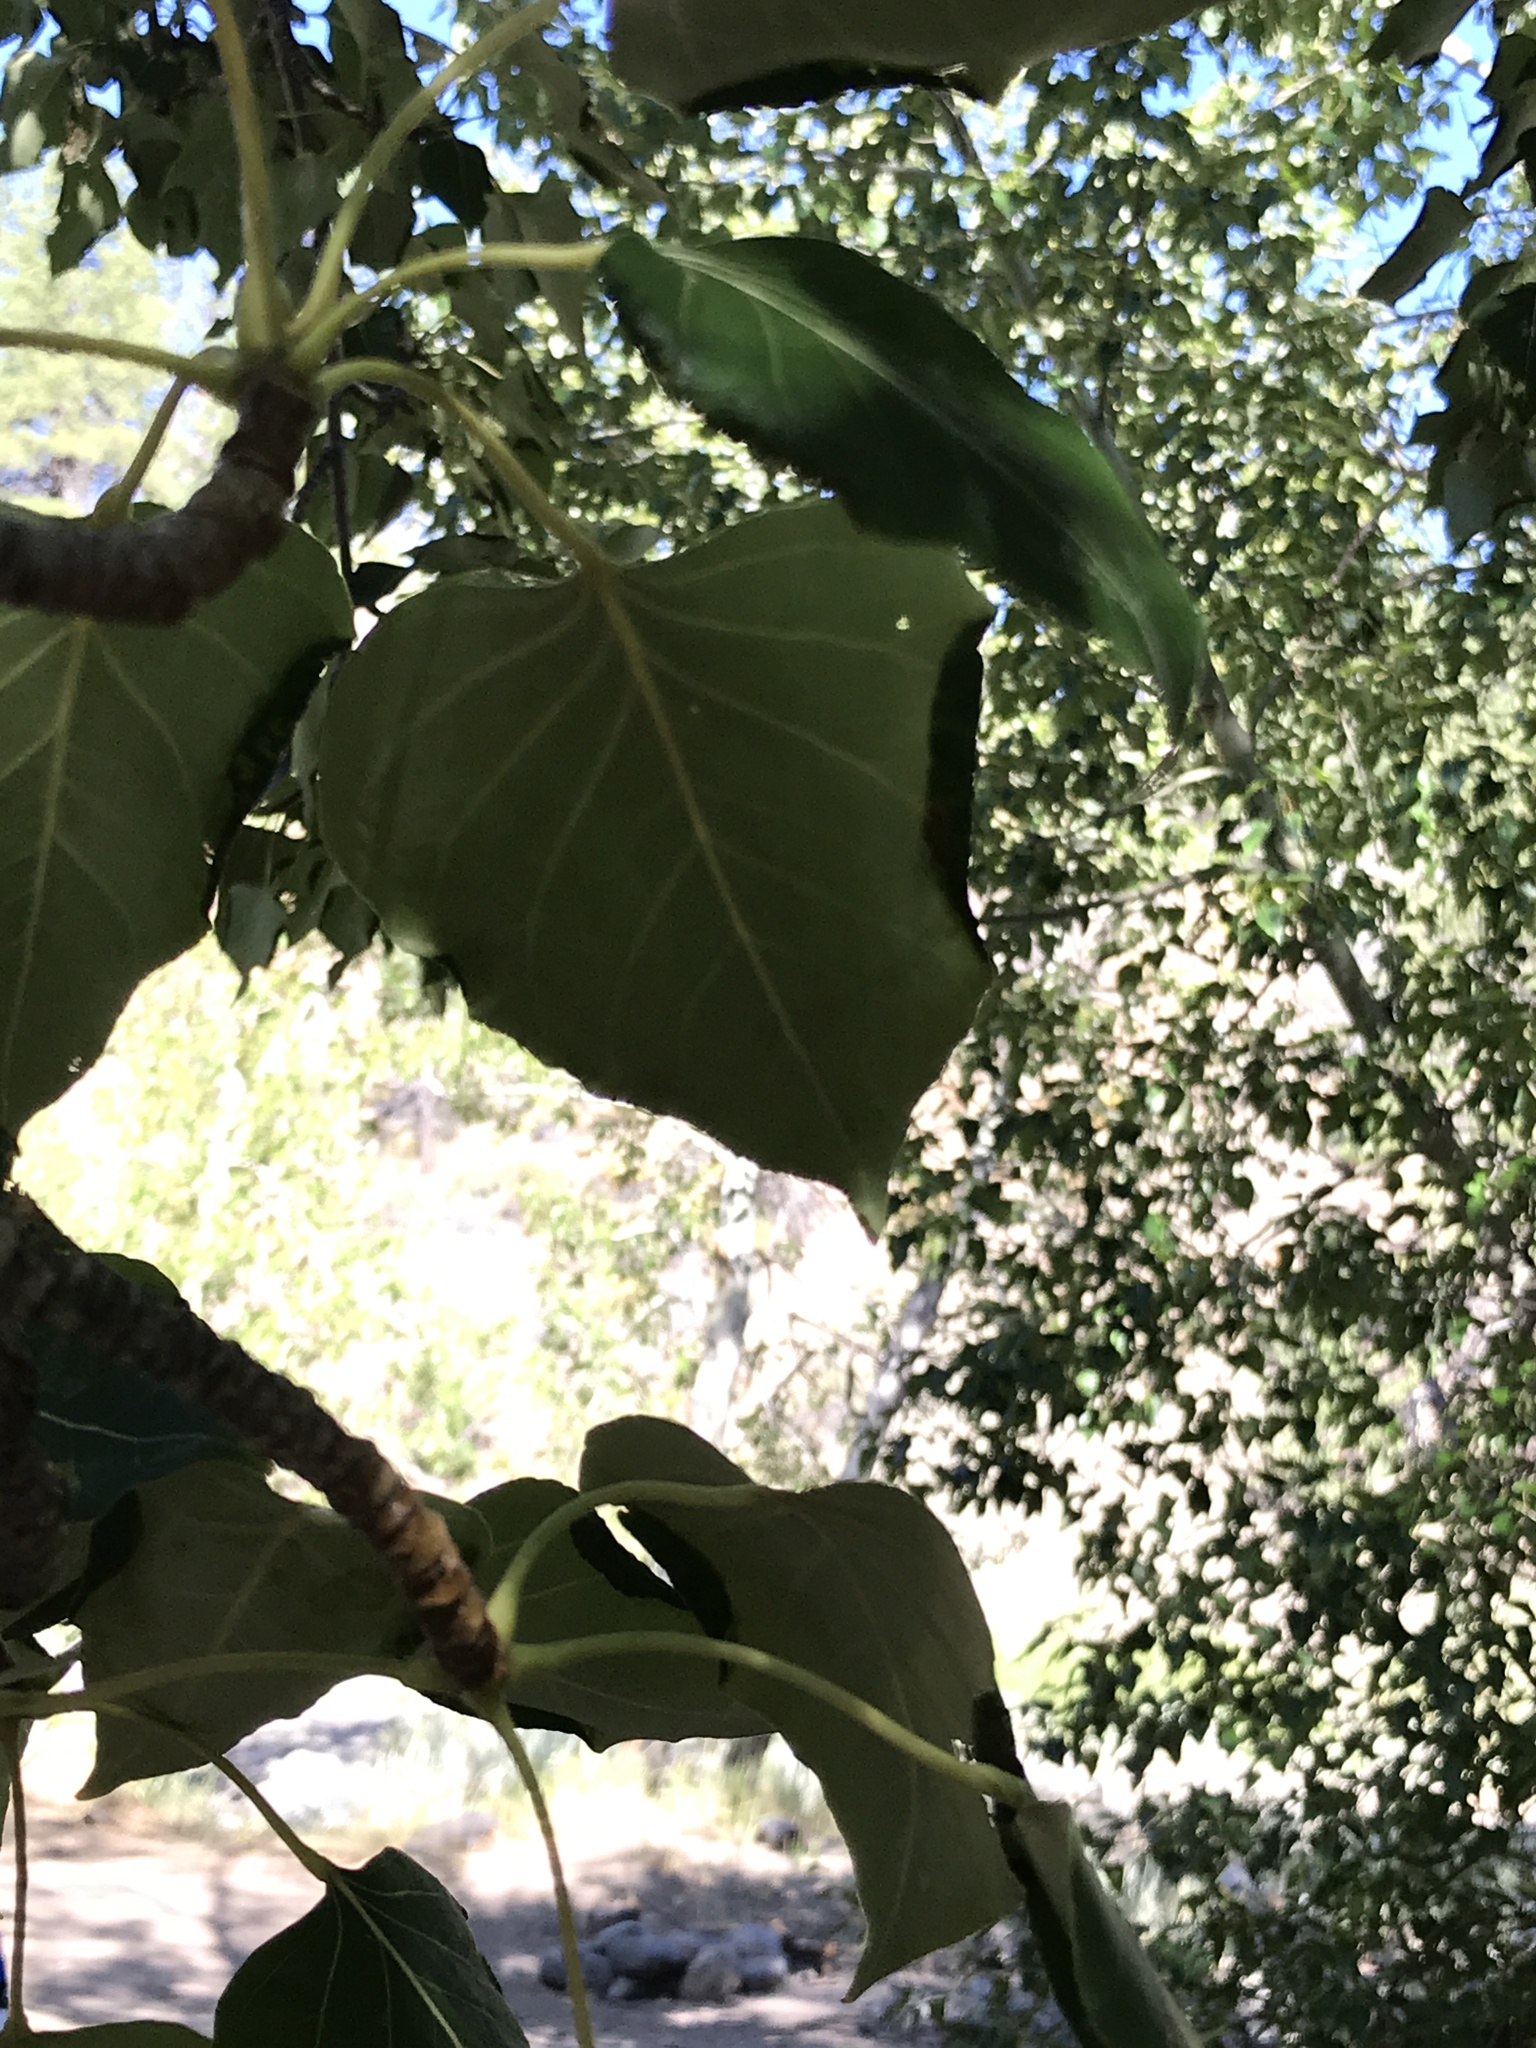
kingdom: Plantae
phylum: Tracheophyta
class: Magnoliopsida
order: Malpighiales
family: Salicaceae
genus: Populus
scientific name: Populus trichocarpa
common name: Black cottonwood
